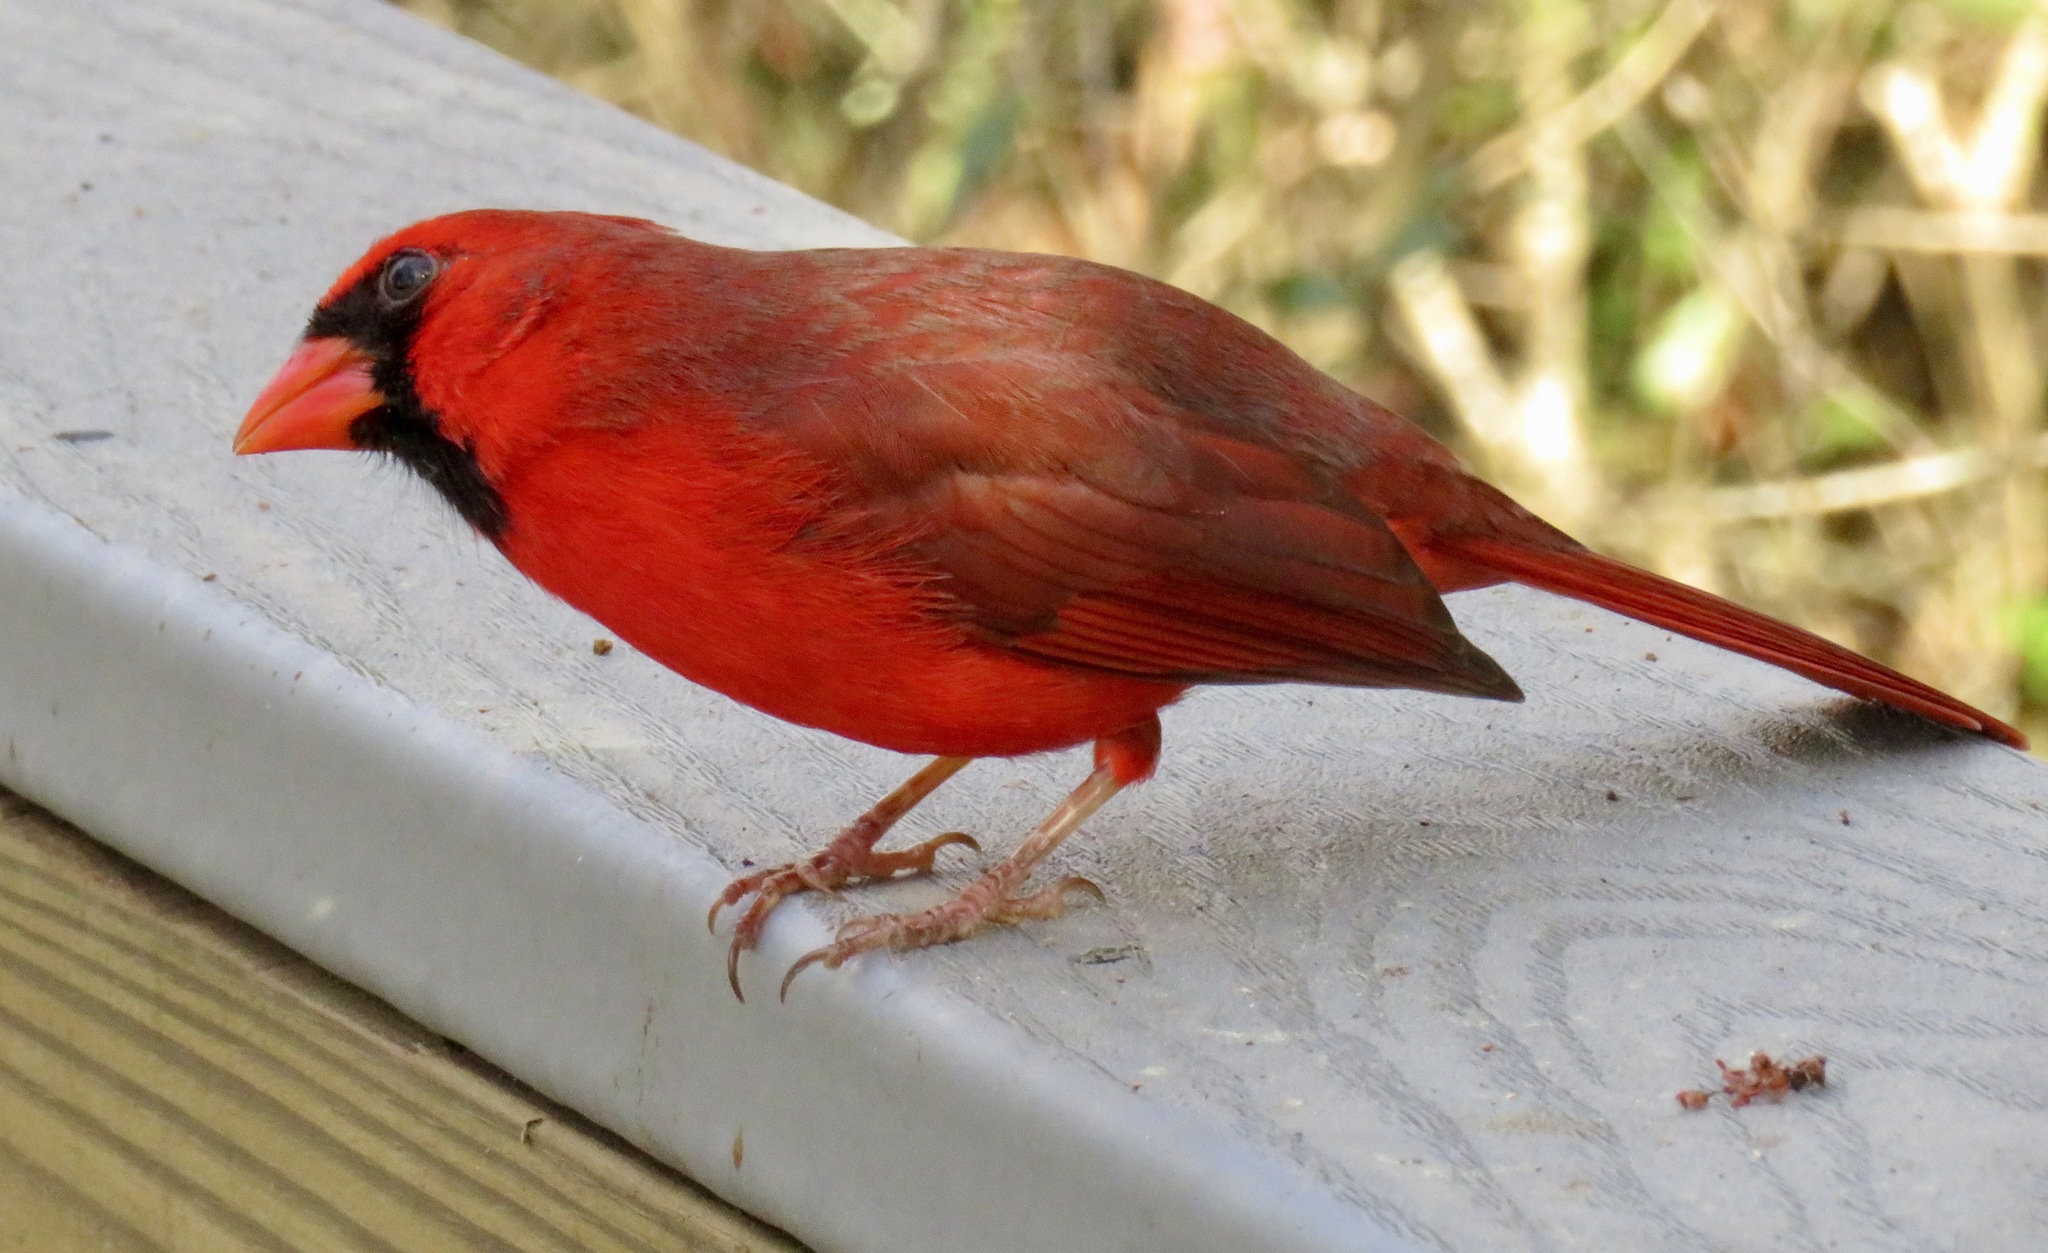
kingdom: Animalia
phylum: Chordata
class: Aves
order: Passeriformes
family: Cardinalidae
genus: Cardinalis
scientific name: Cardinalis cardinalis
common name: Northern cardinal
